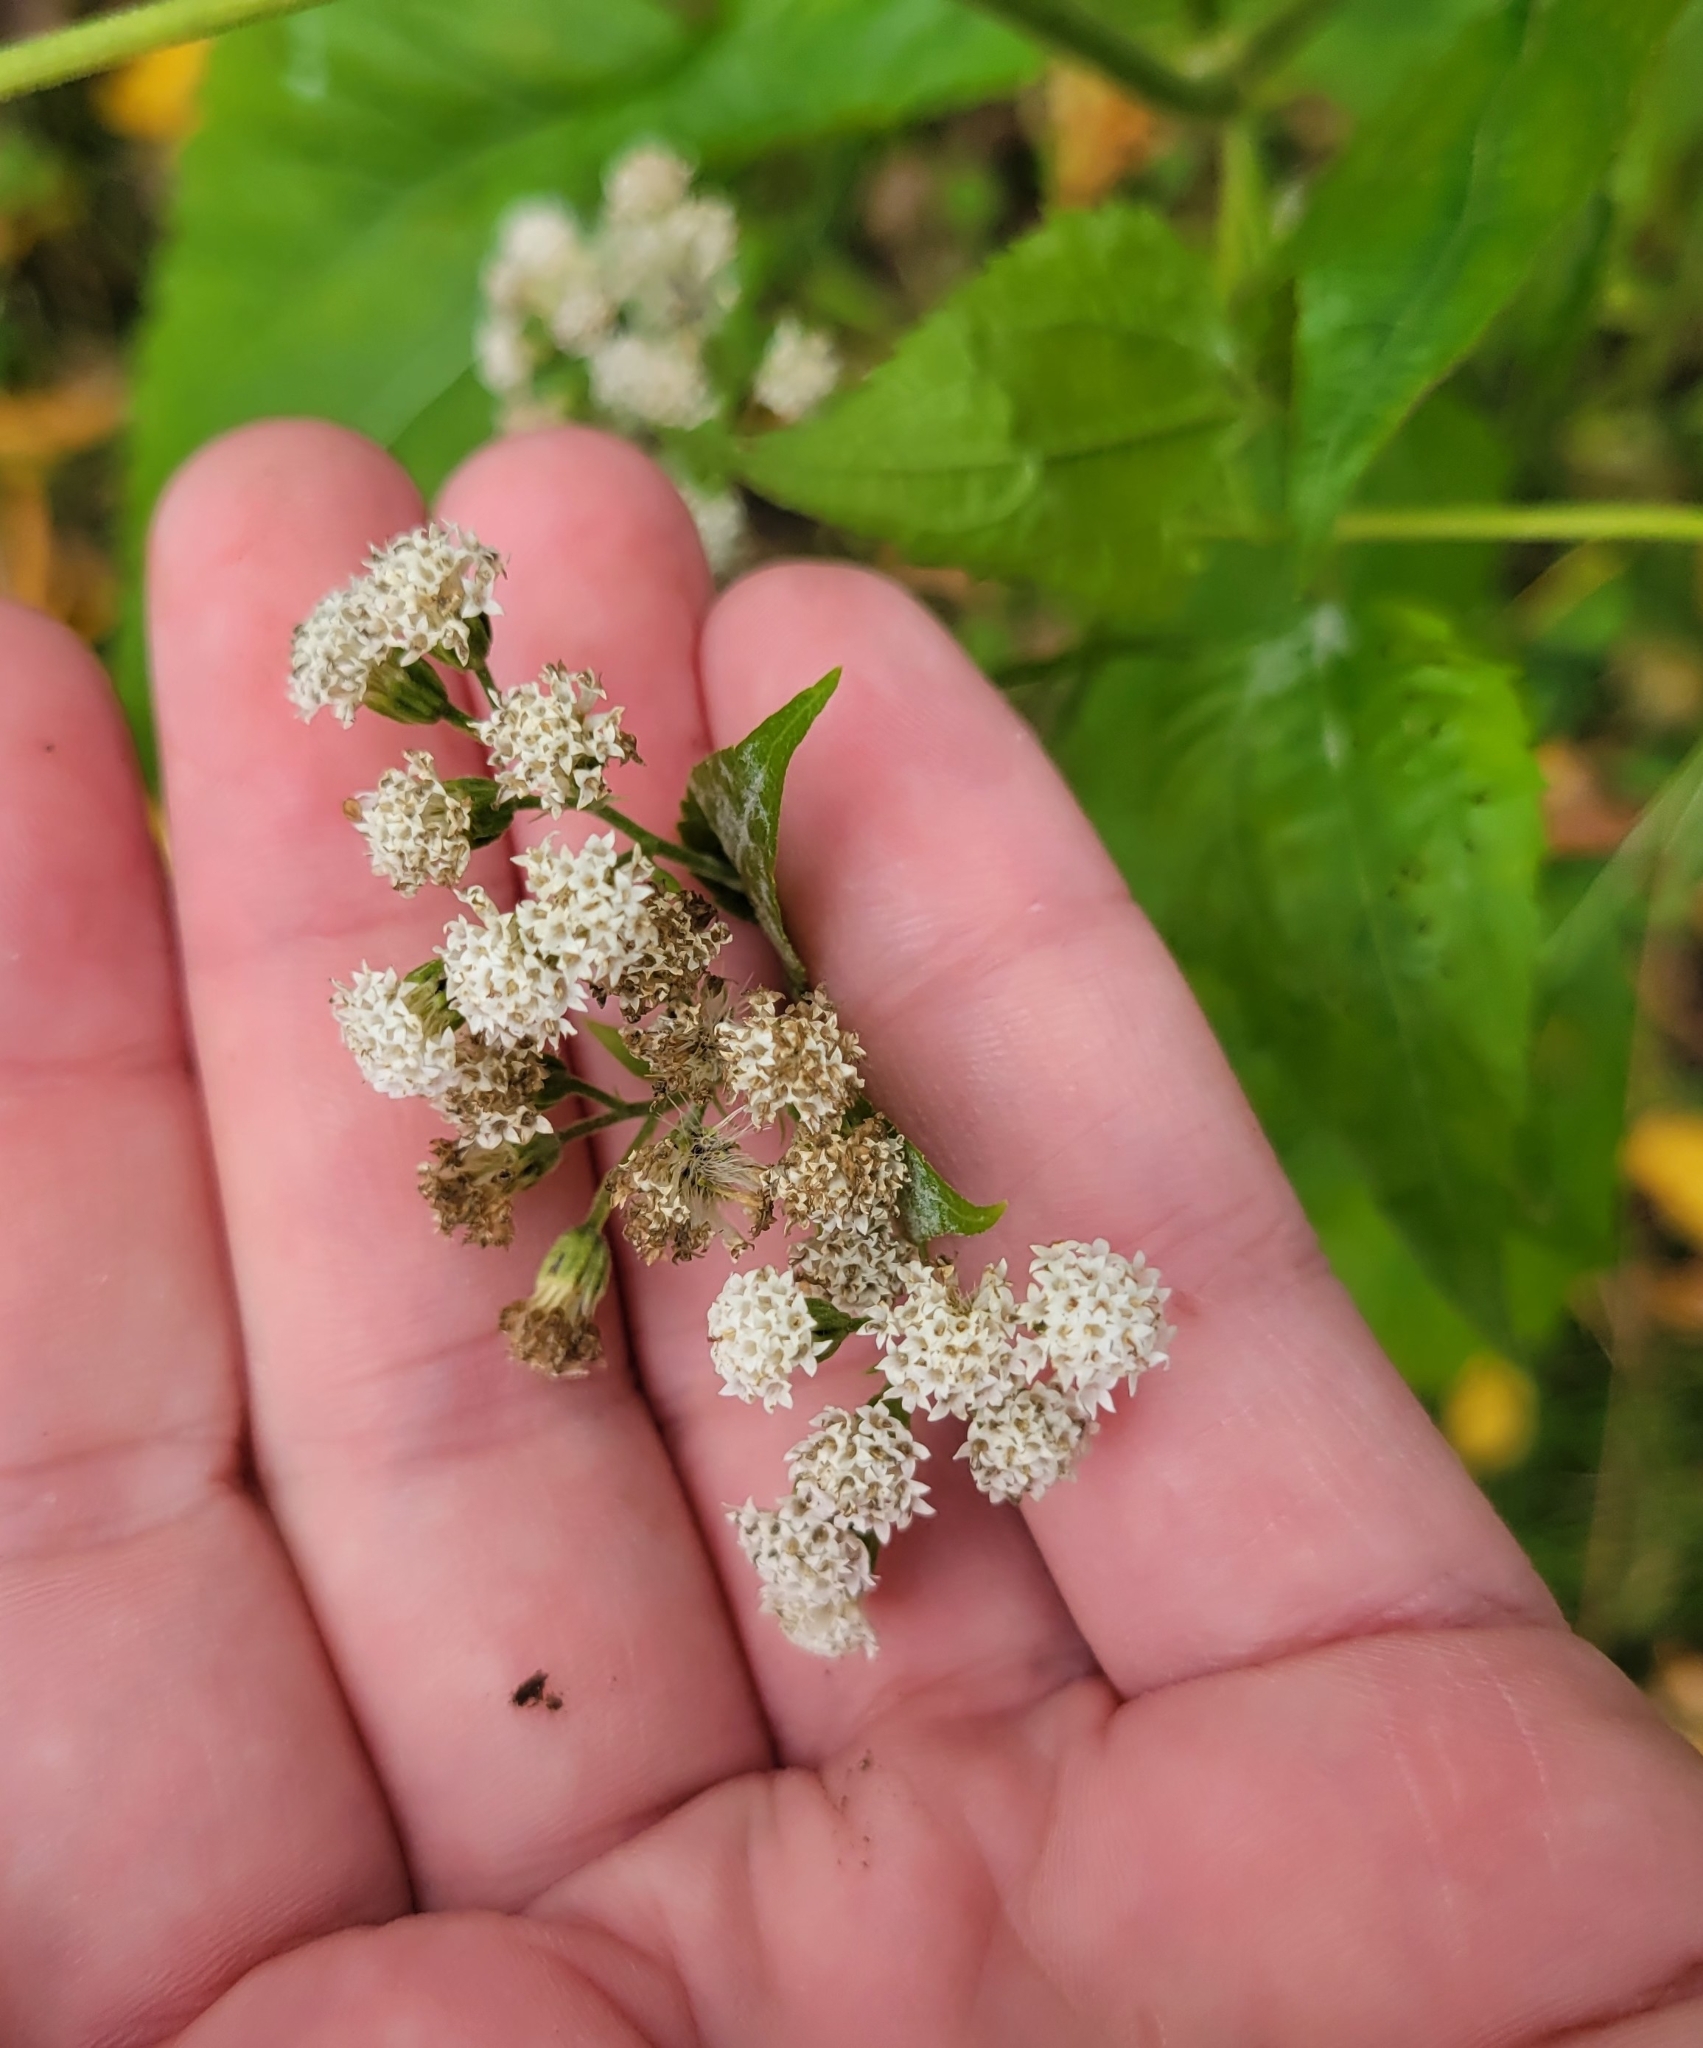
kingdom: Plantae
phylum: Tracheophyta
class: Magnoliopsida
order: Asterales
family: Asteraceae
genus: Ageratina
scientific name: Ageratina altissima
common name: White snakeroot
